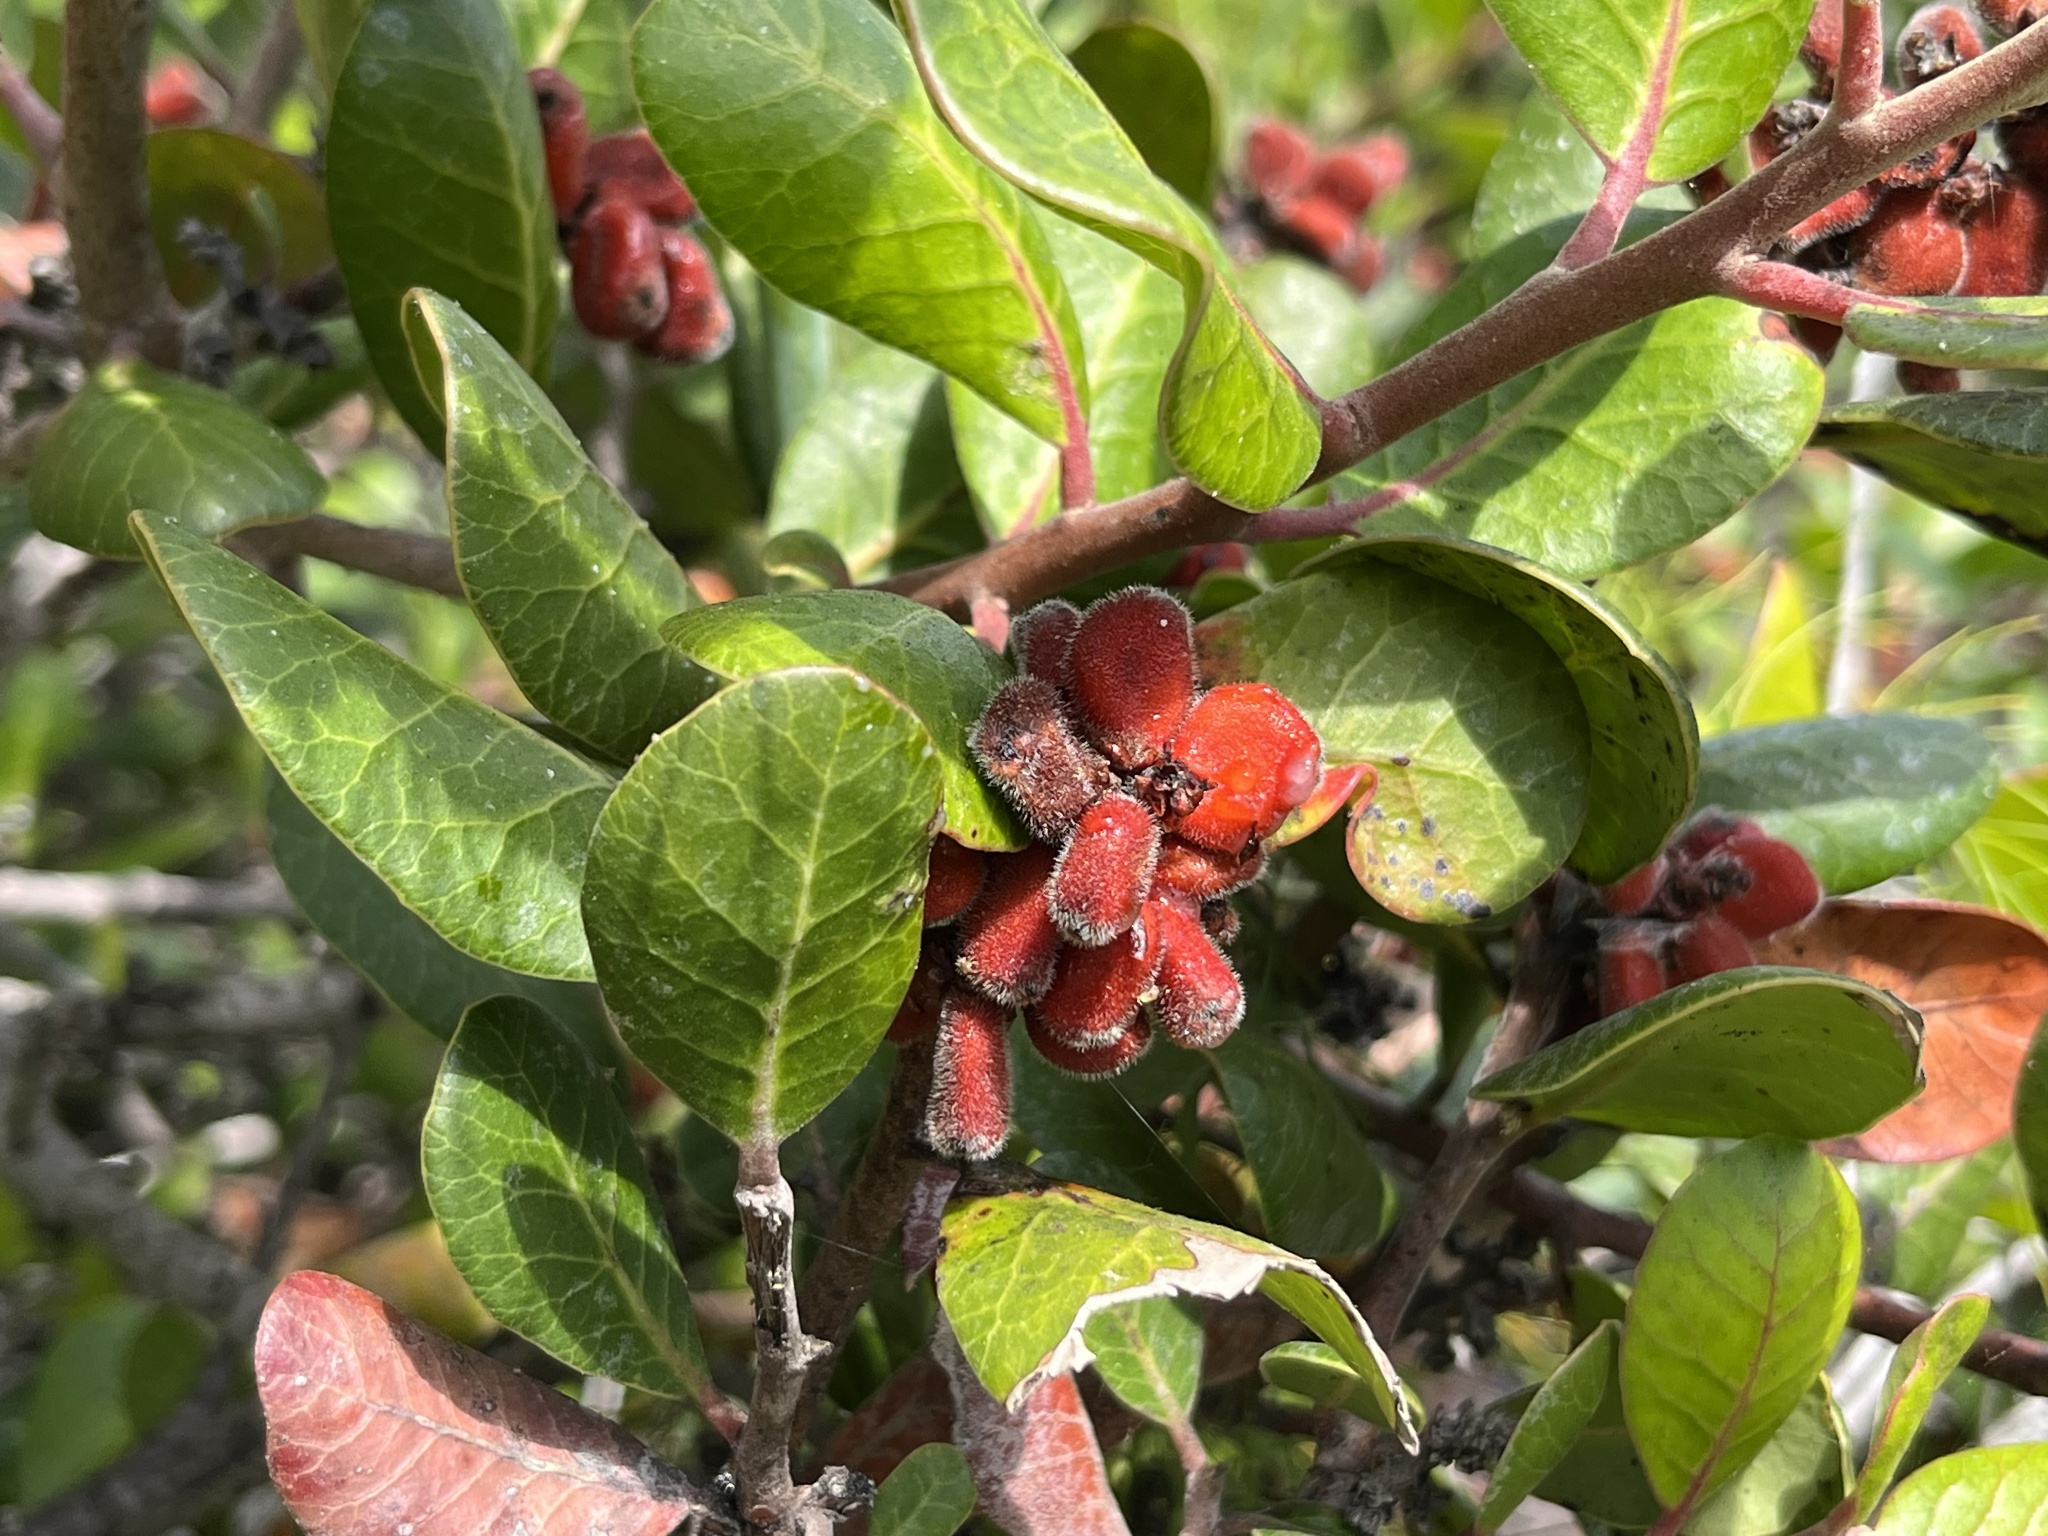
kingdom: Plantae
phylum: Tracheophyta
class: Magnoliopsida
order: Sapindales
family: Anacardiaceae
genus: Rhus
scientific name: Rhus integrifolia
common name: Lemonade sumac
